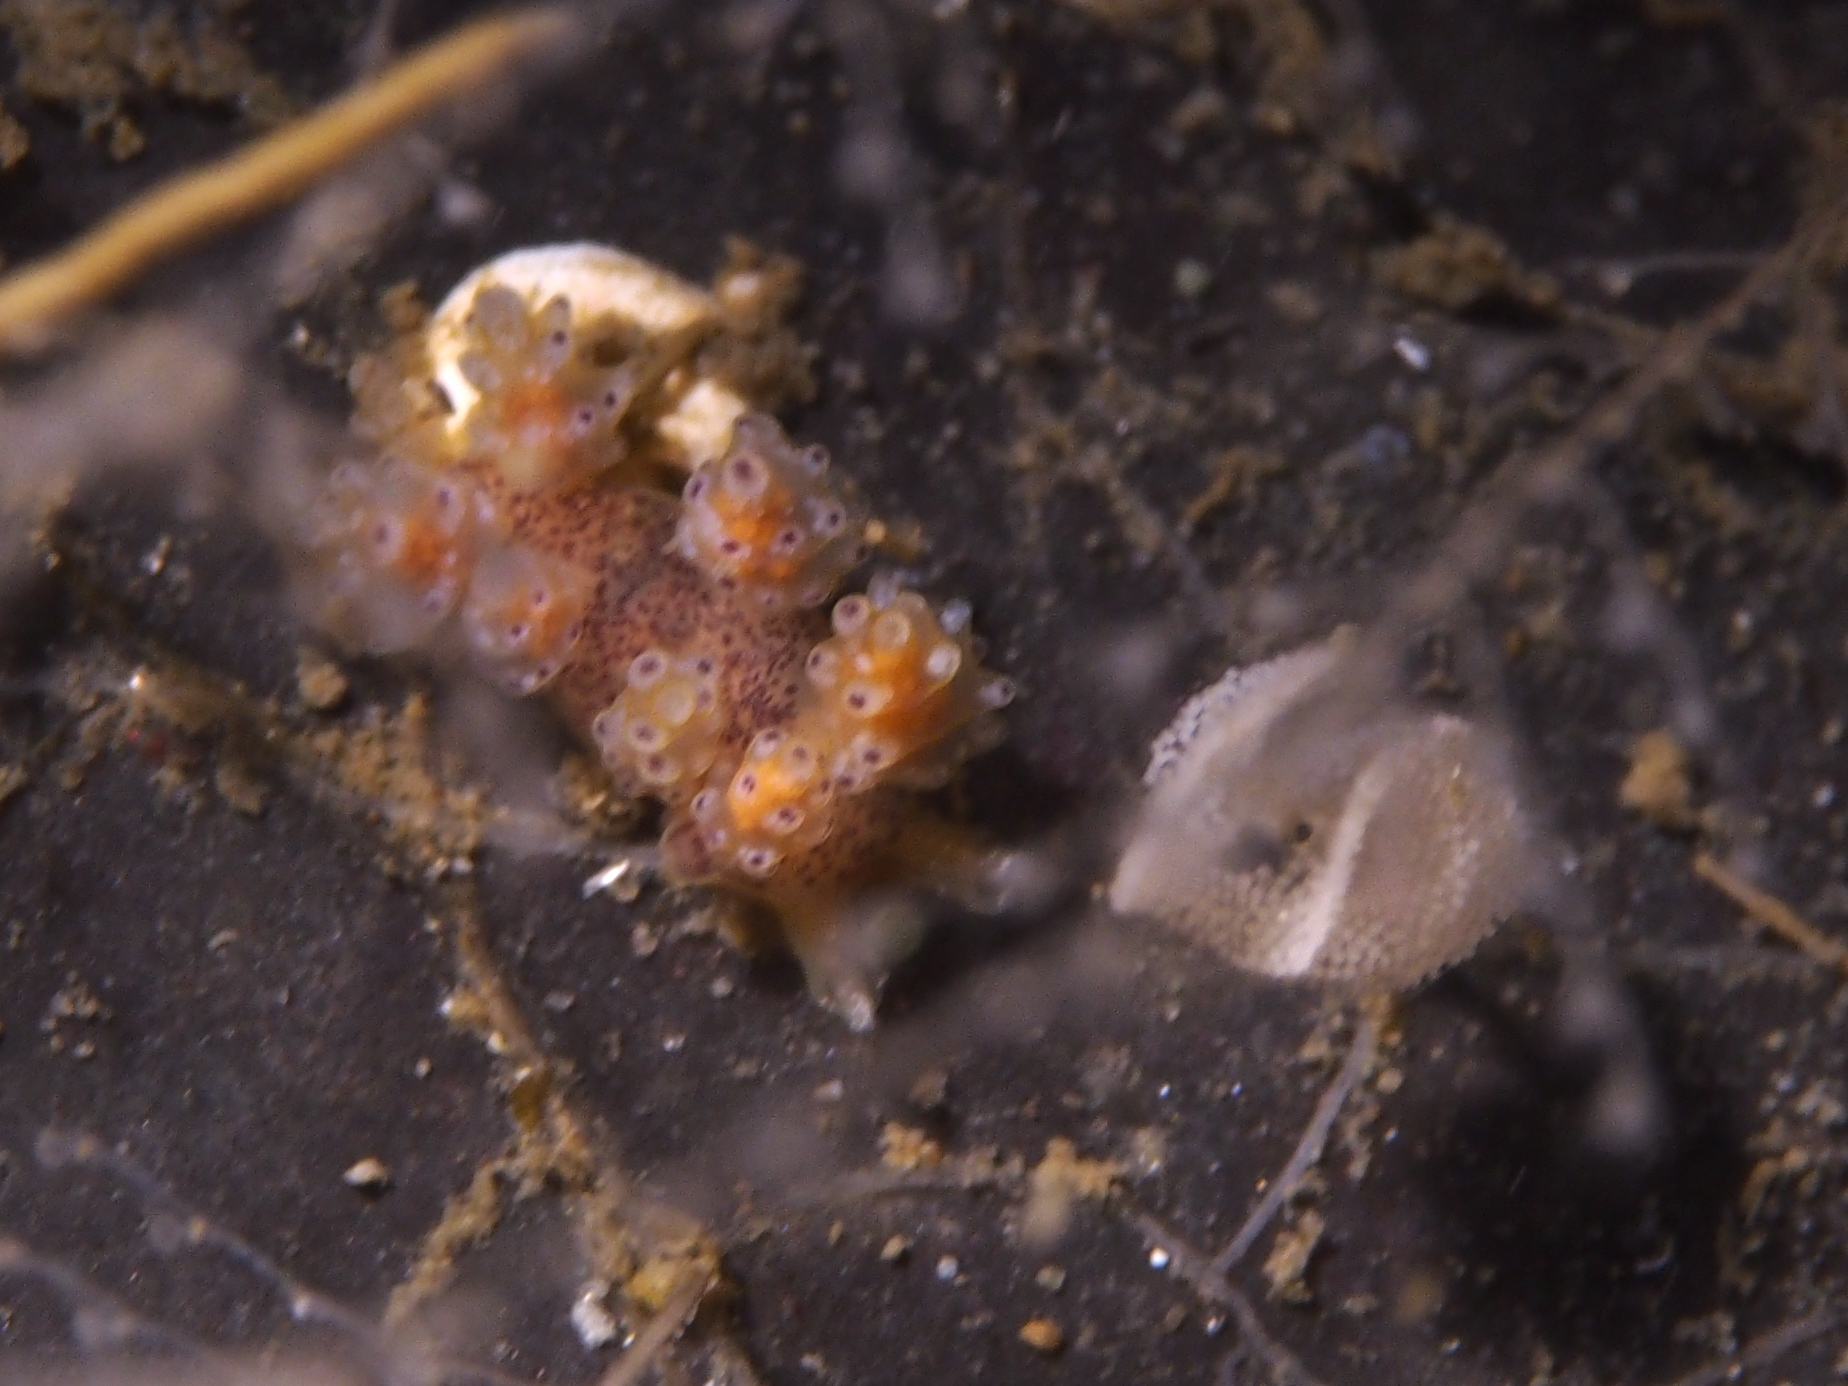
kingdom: Animalia
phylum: Mollusca
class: Gastropoda
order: Nudibranchia
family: Dotidae
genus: Doto
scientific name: Doto maculata
